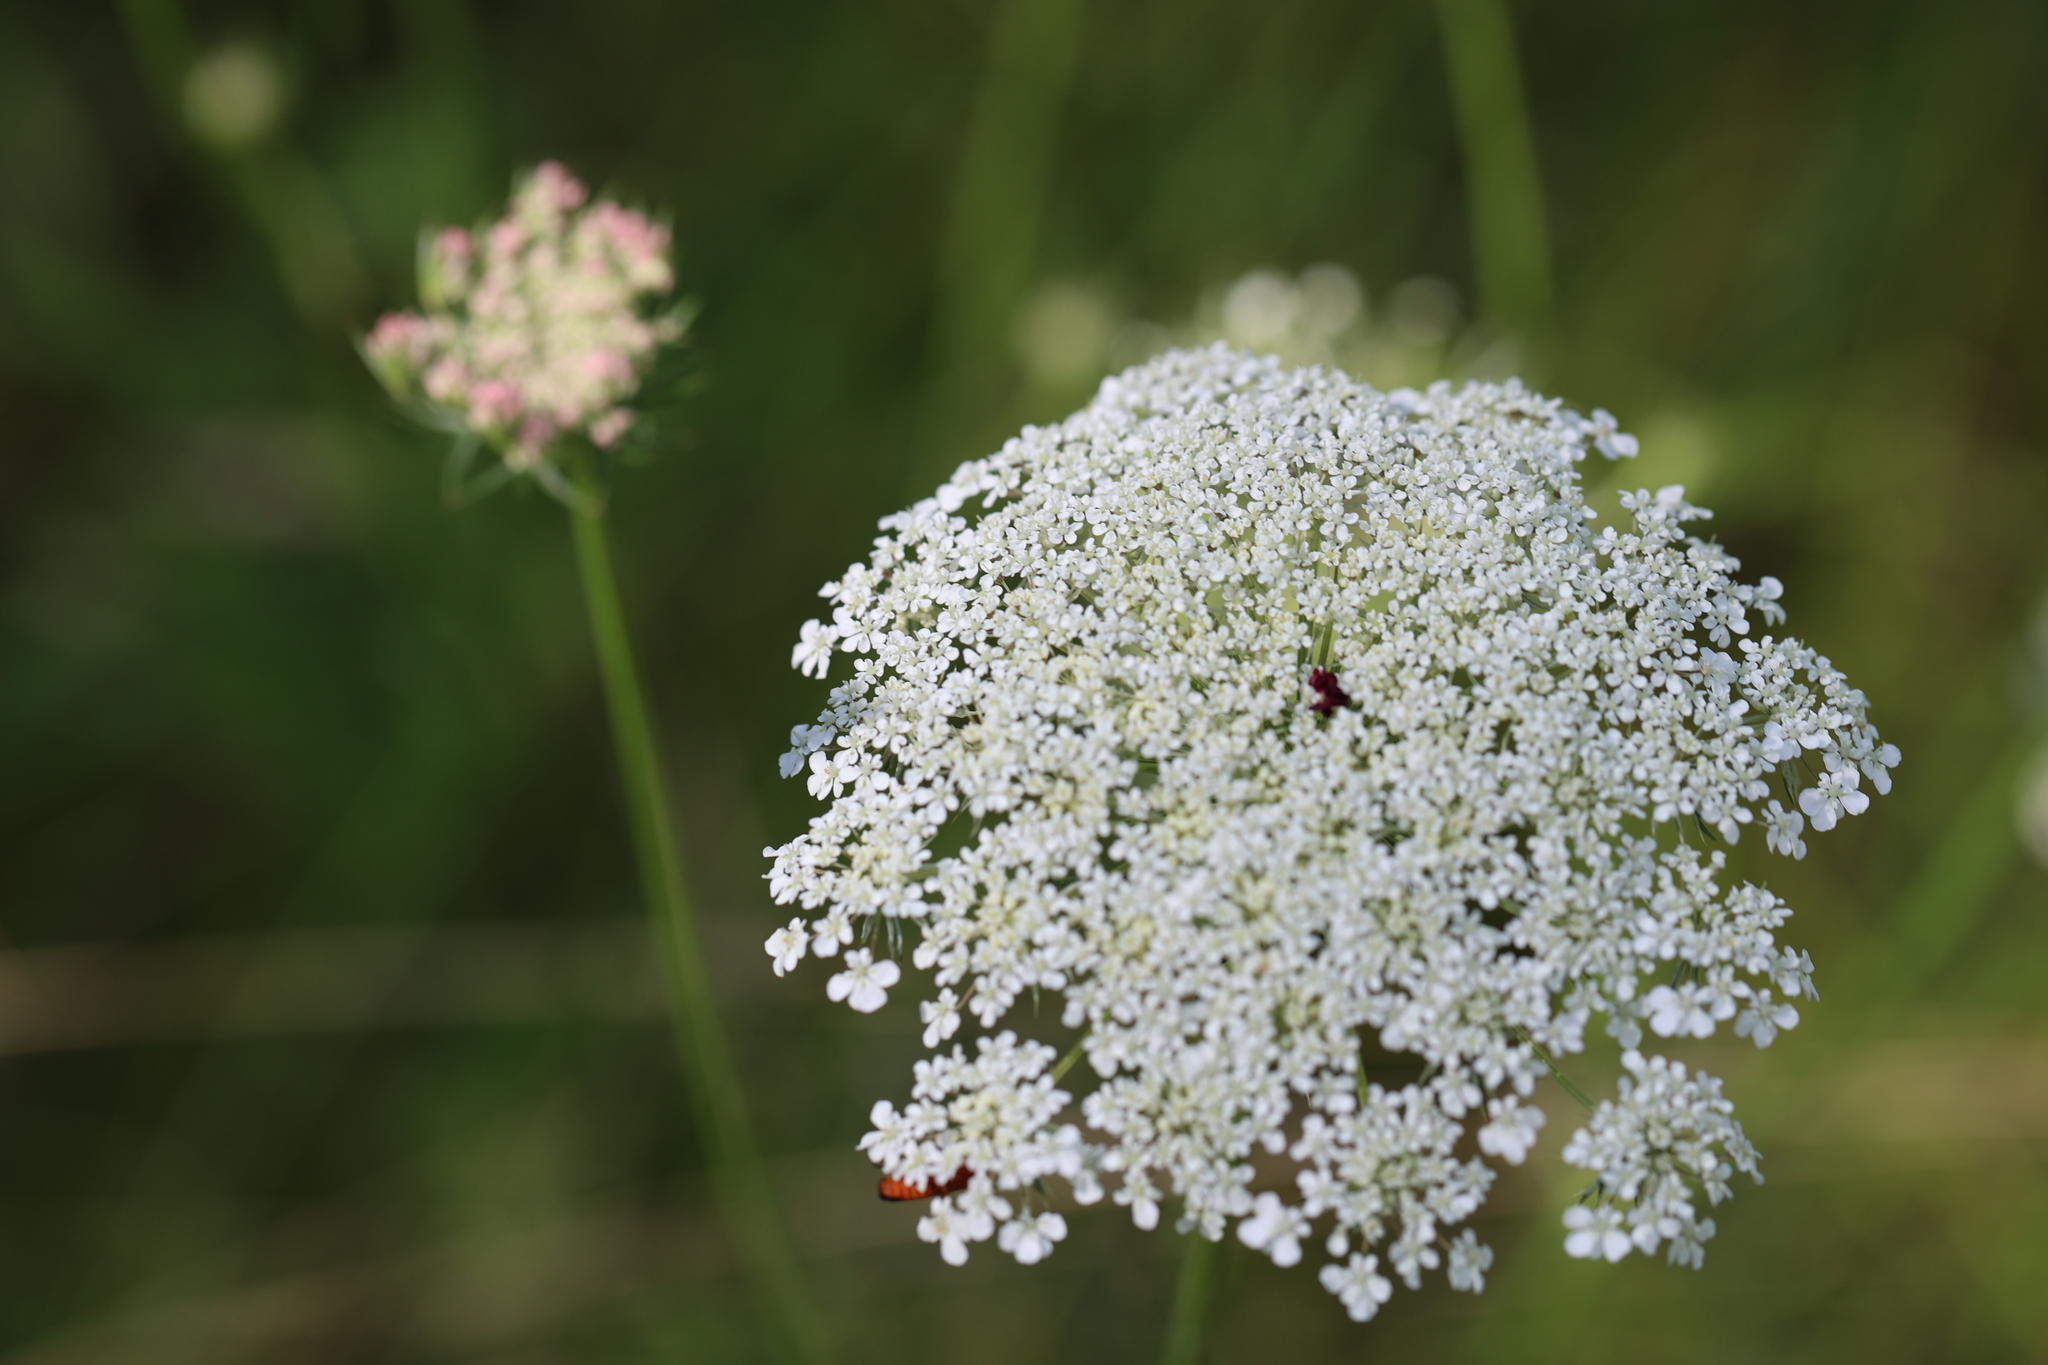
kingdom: Plantae
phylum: Tracheophyta
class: Magnoliopsida
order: Apiales
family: Apiaceae
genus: Daucus
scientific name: Daucus carota
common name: Wild carrot
